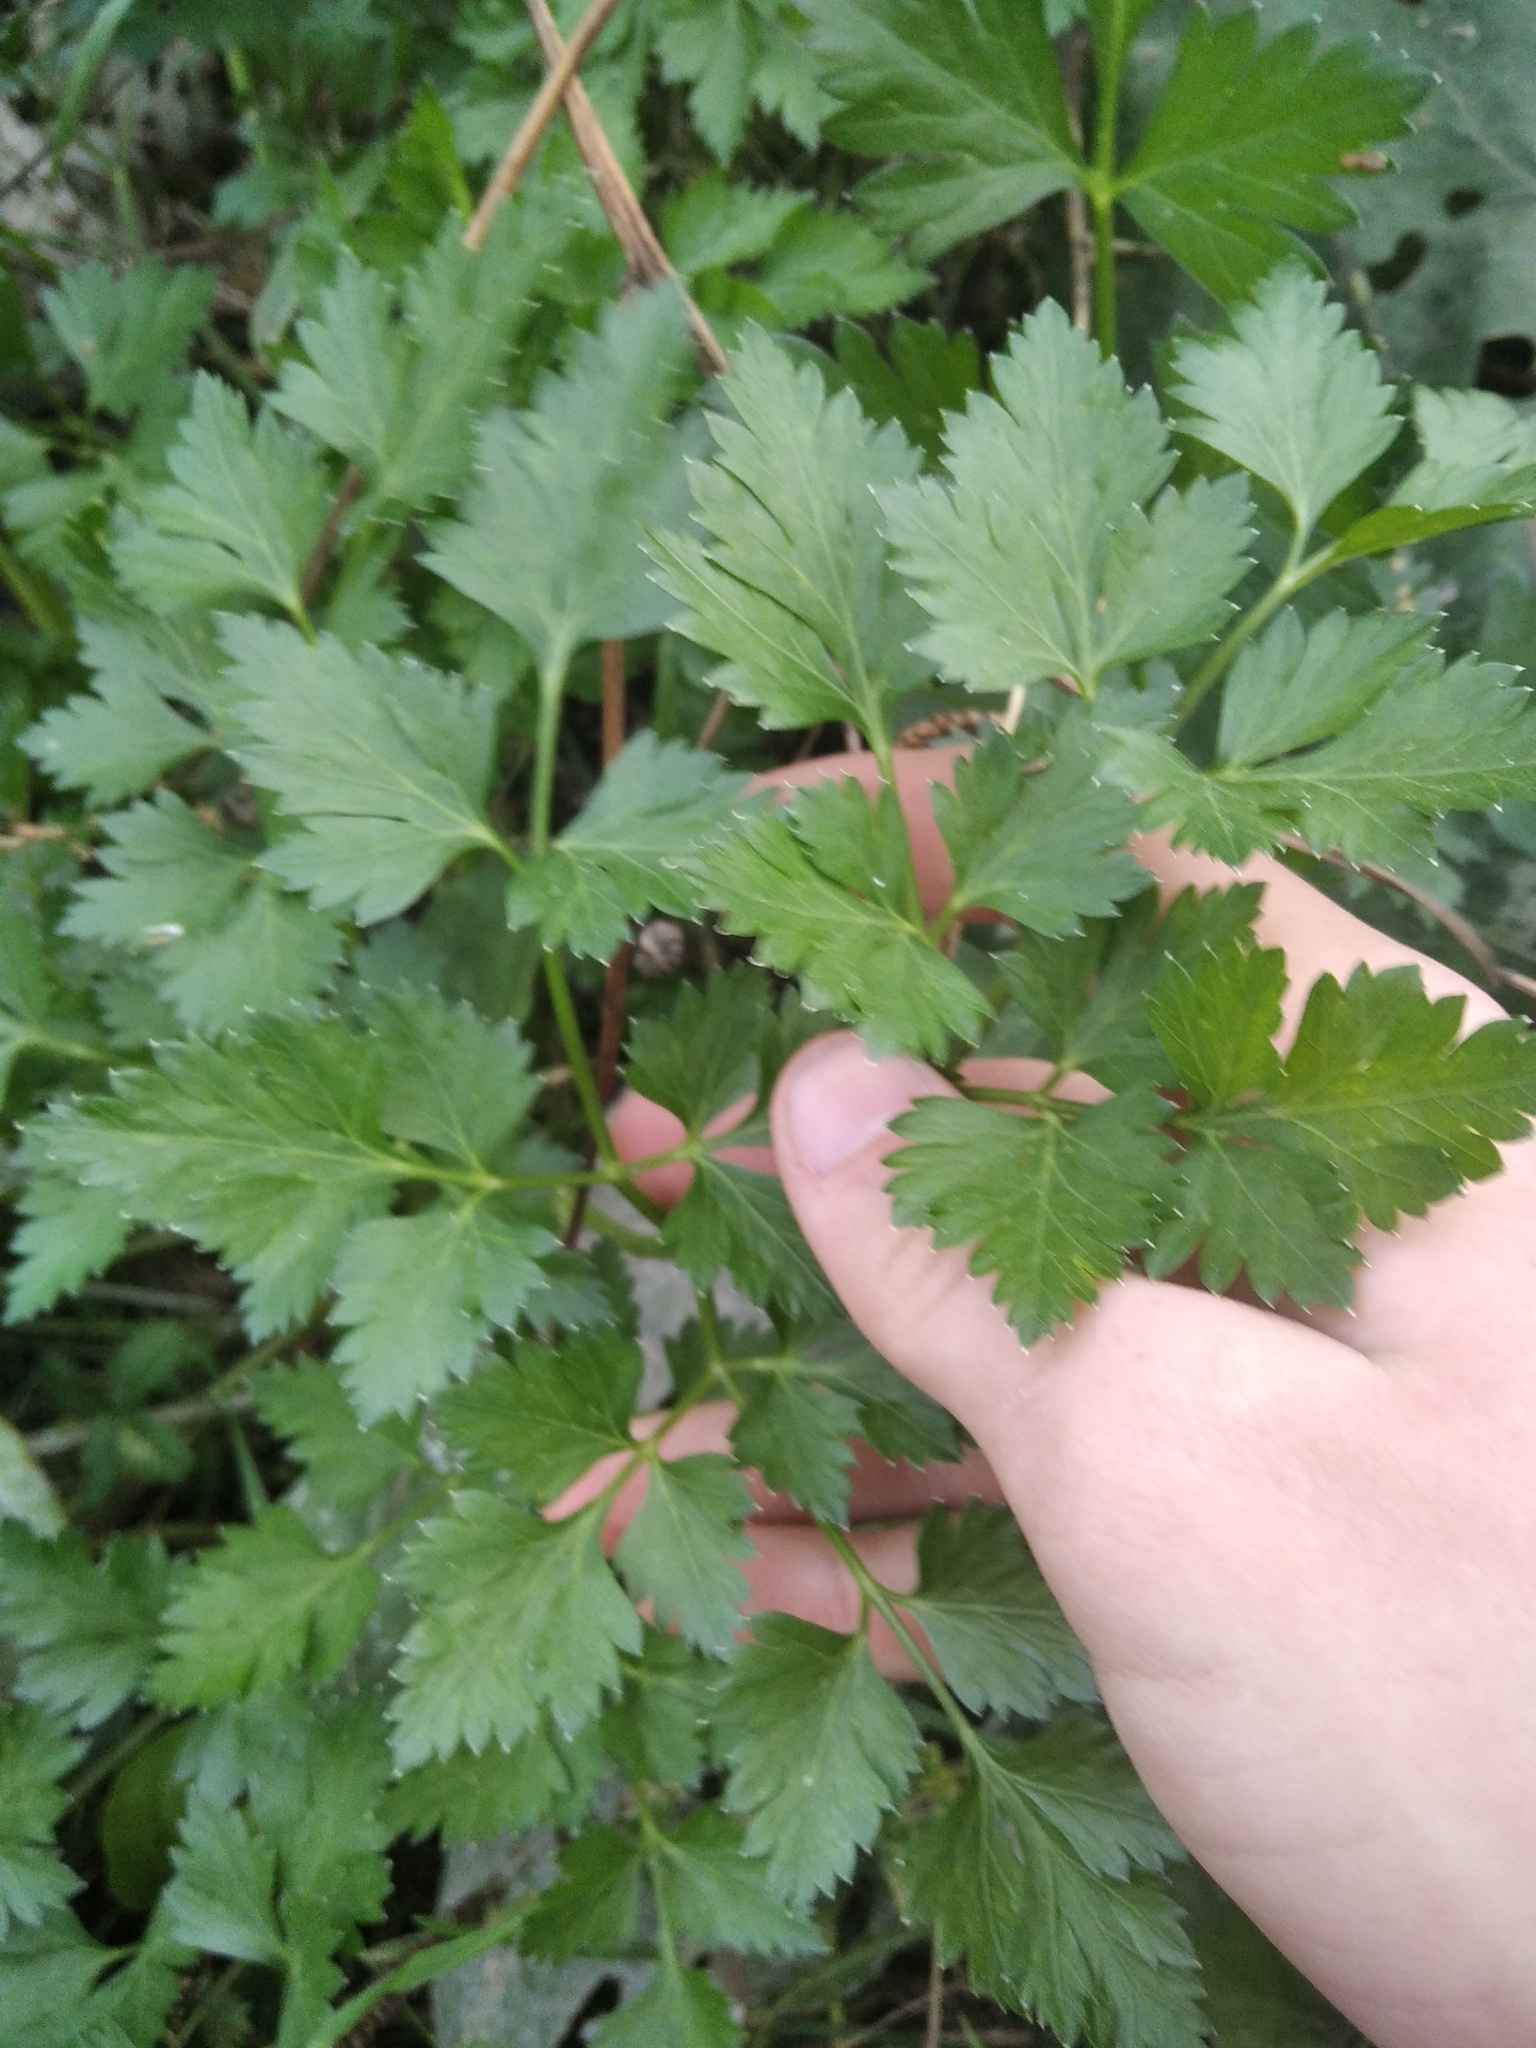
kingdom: Plantae
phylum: Tracheophyta
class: Magnoliopsida
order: Apiales
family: Apiaceae
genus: Apium
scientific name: Apium graveolens
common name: Wild celery
